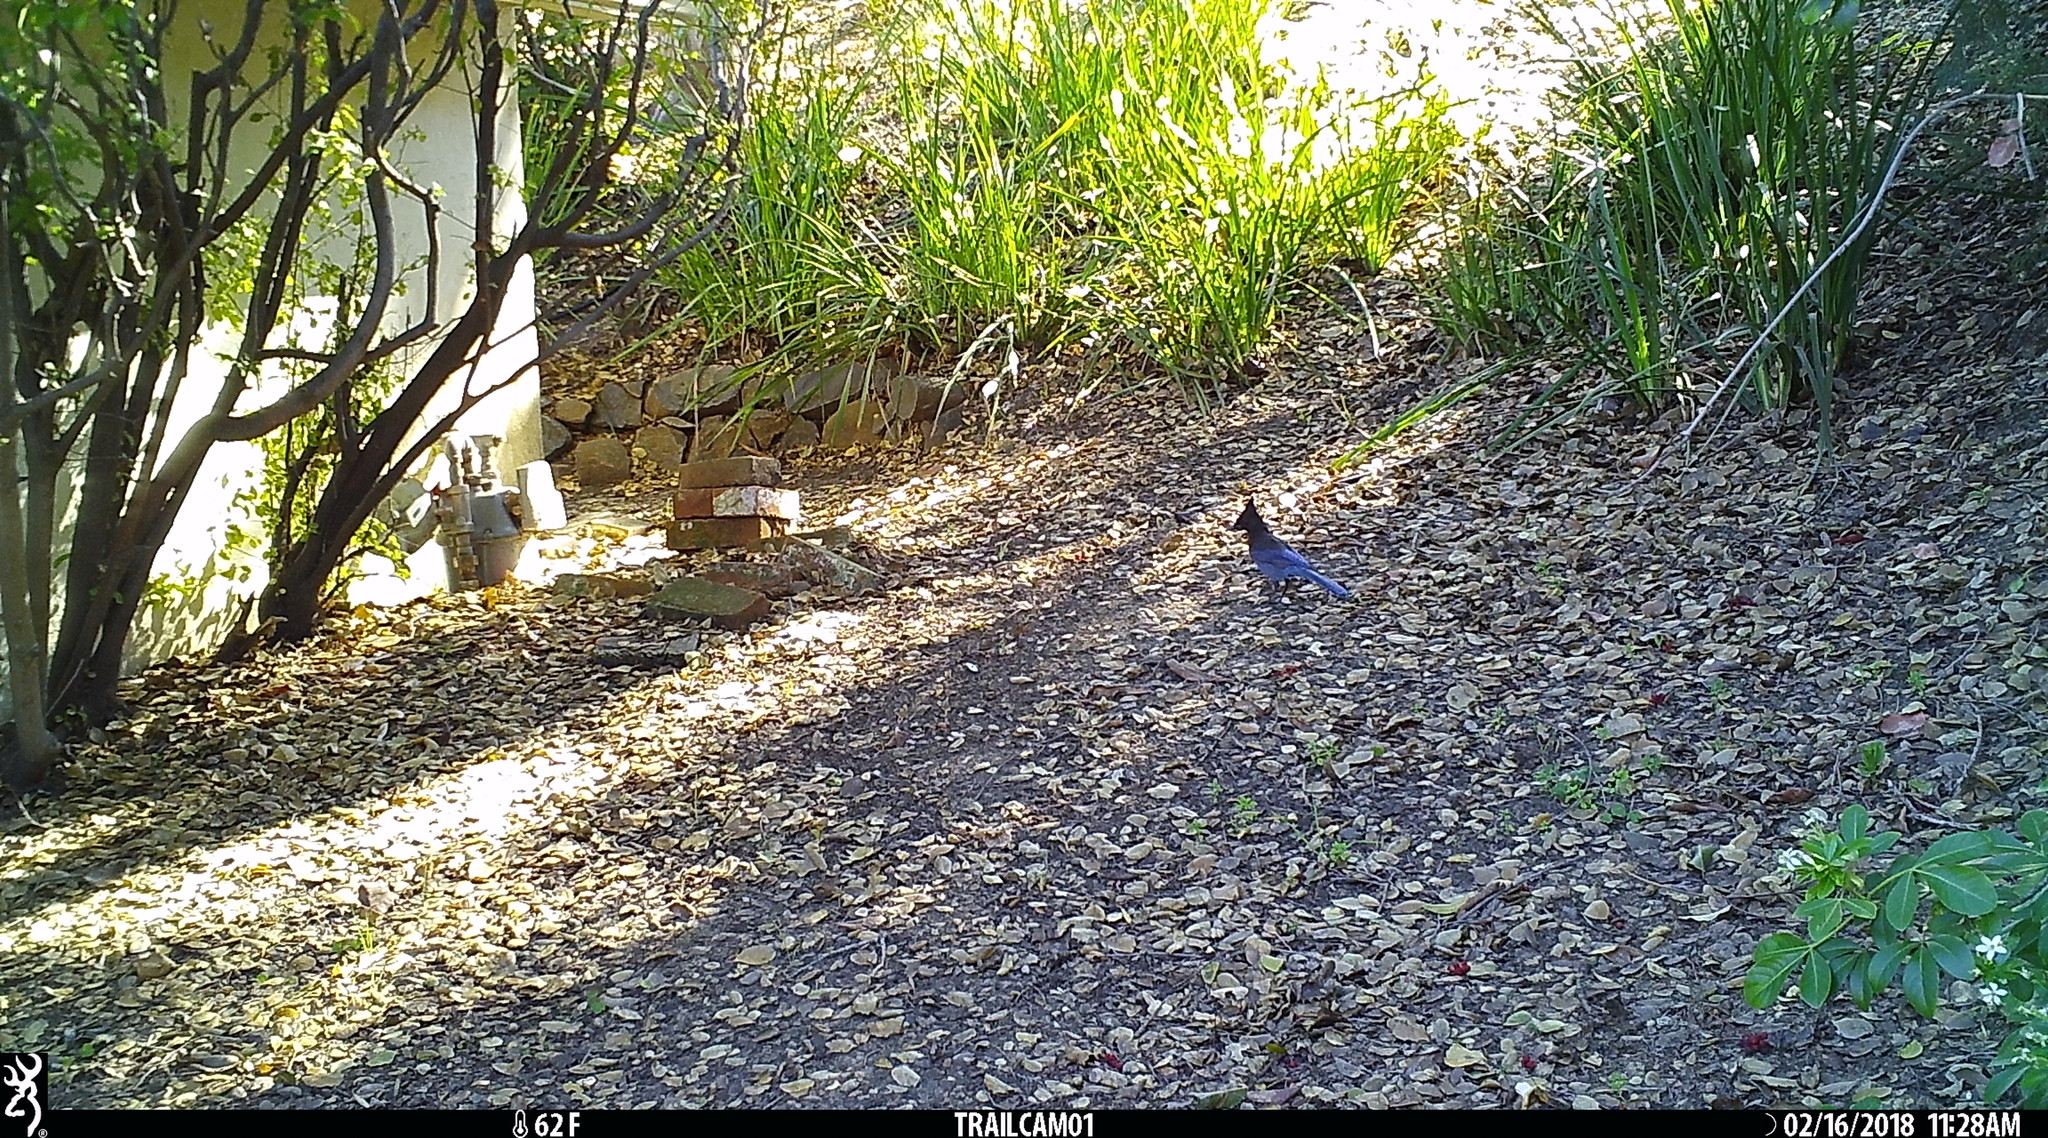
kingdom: Animalia
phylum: Chordata
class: Aves
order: Passeriformes
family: Corvidae
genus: Cyanocitta
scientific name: Cyanocitta stelleri
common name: Steller's jay
